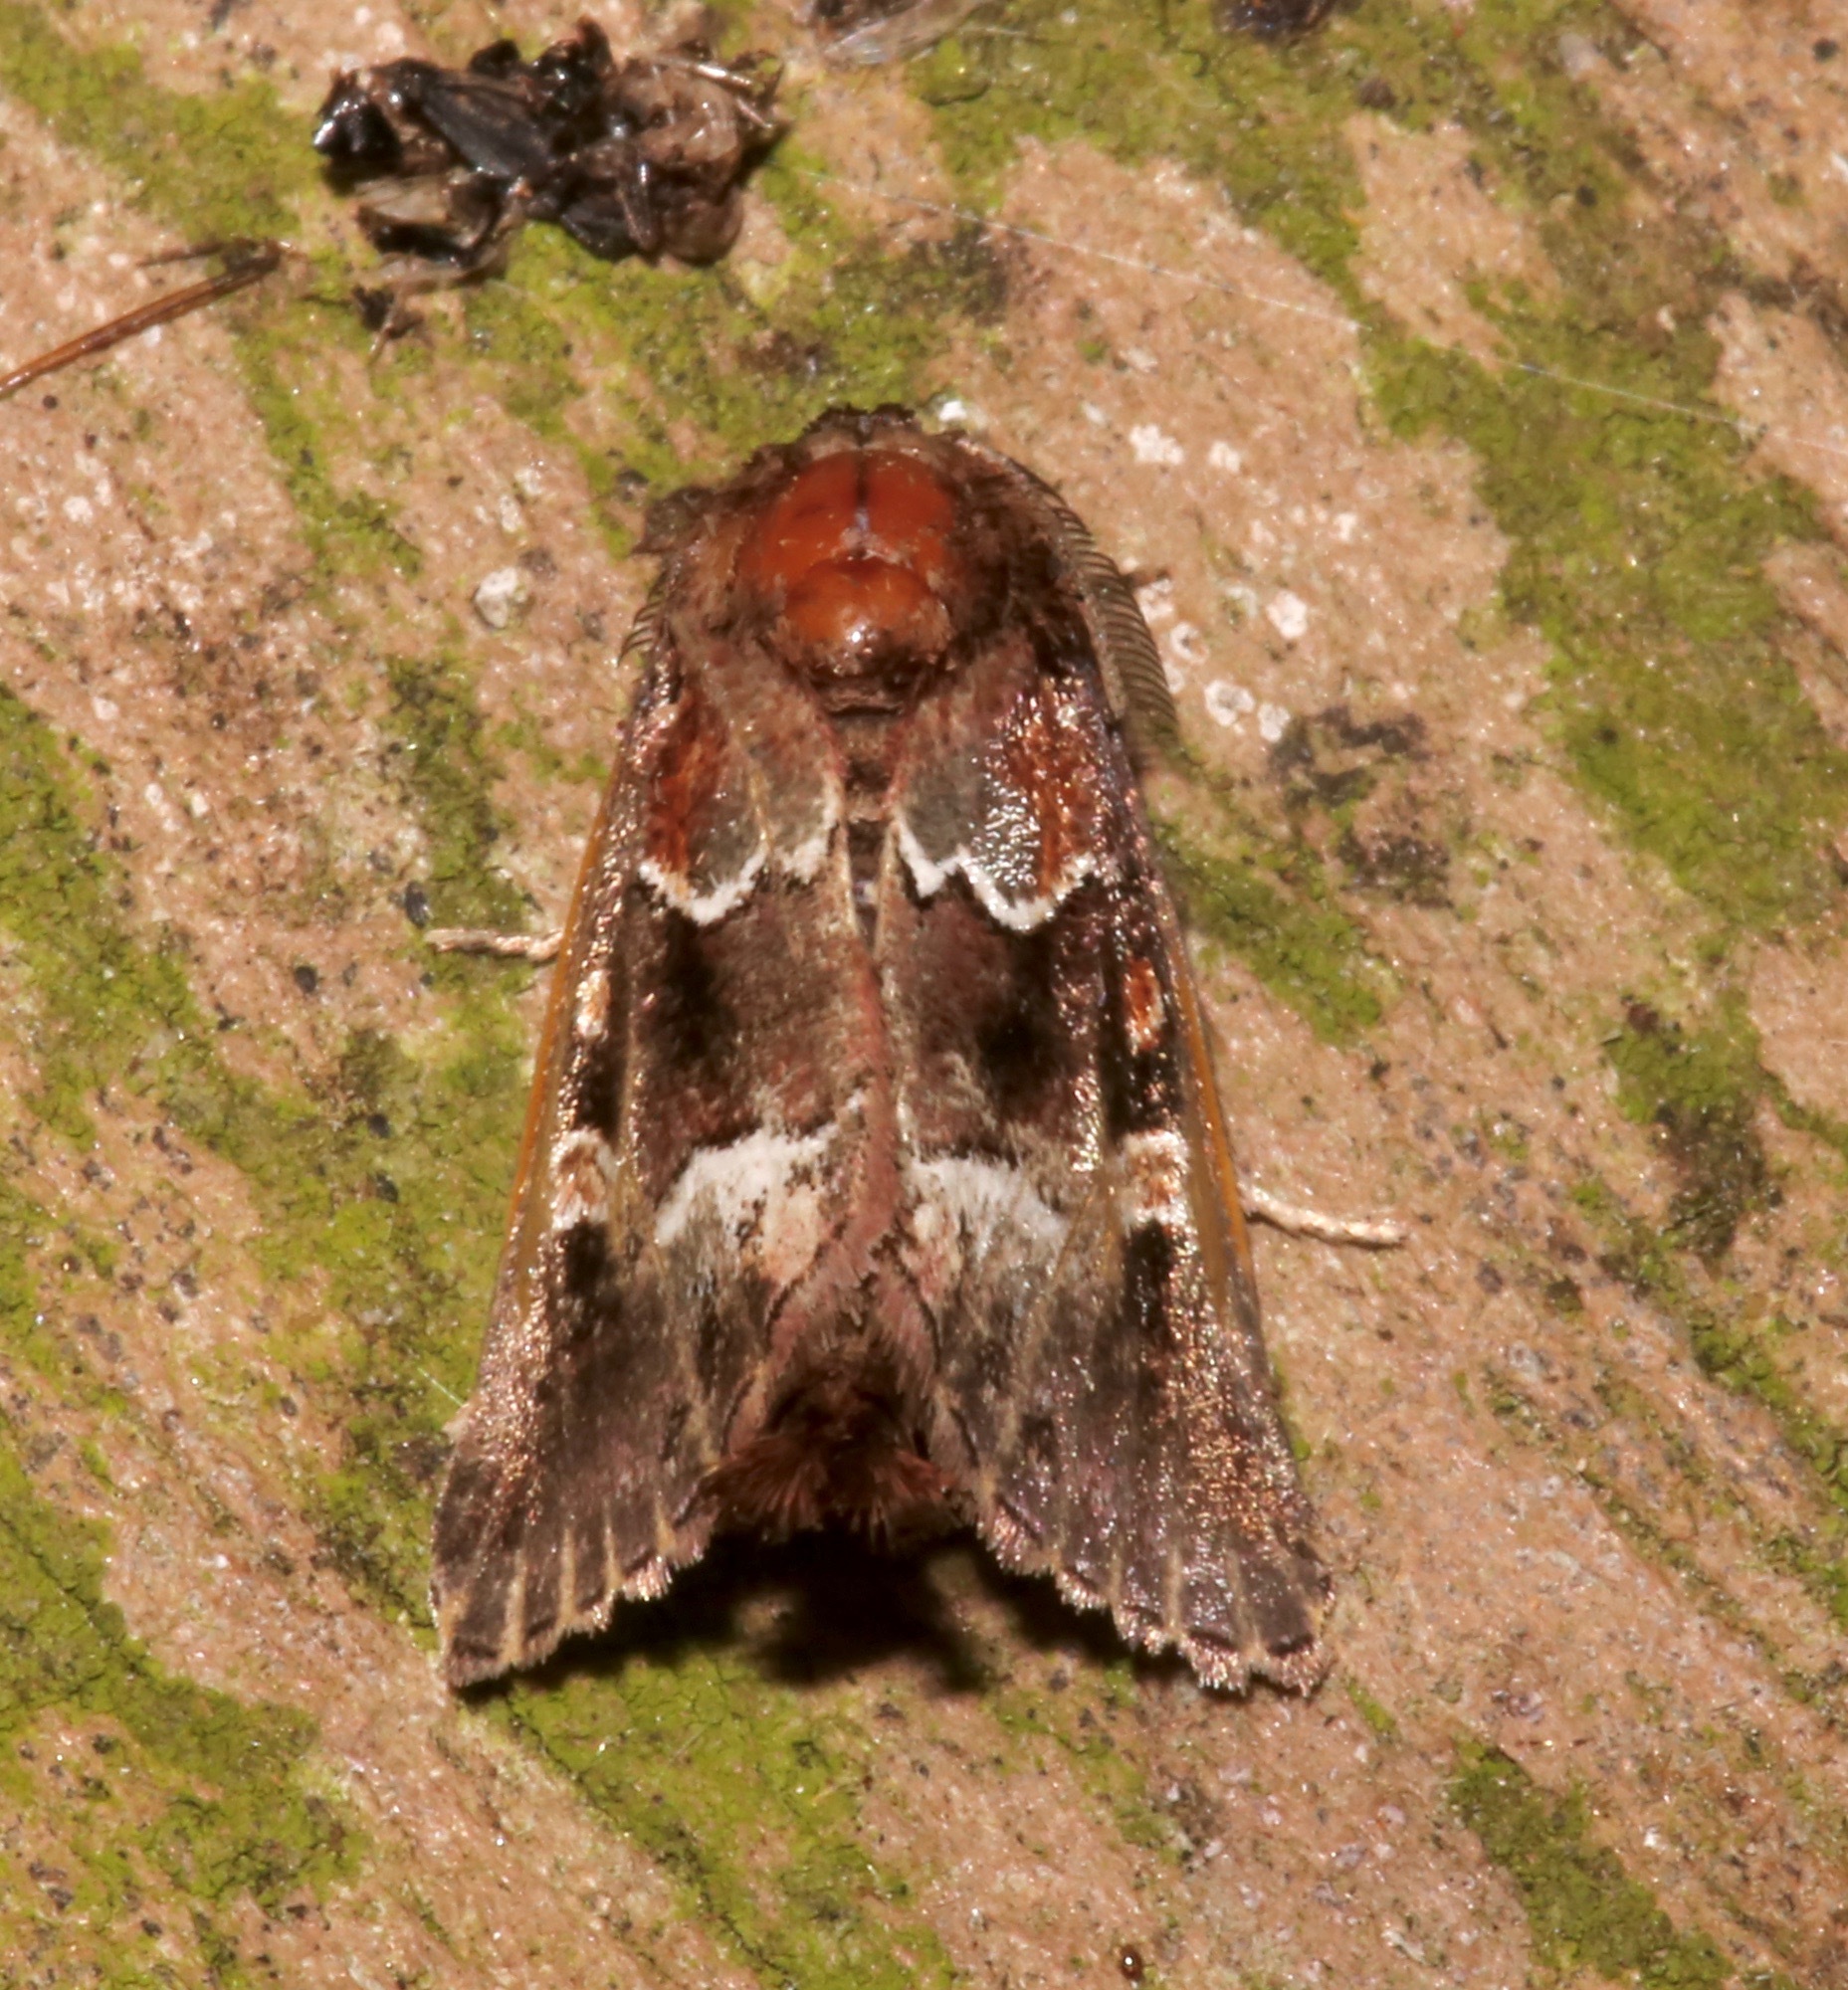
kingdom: Animalia
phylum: Arthropoda
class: Insecta
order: Lepidoptera
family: Noctuidae
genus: Acherdoa
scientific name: Acherdoa ferraria
